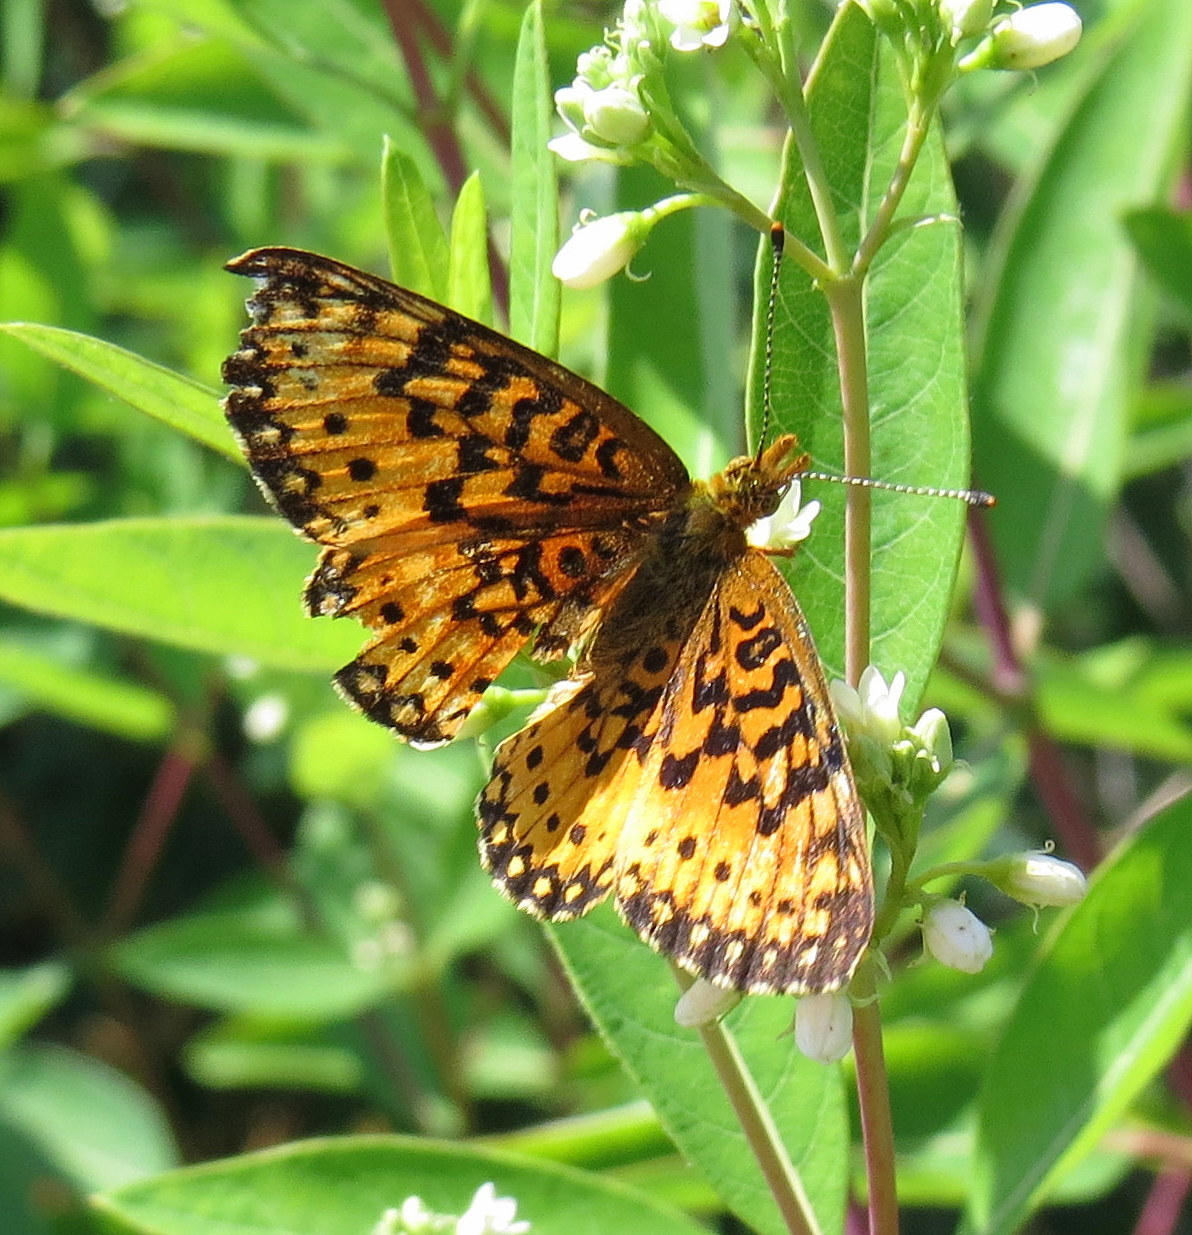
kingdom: Animalia
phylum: Arthropoda
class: Insecta
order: Lepidoptera
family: Nymphalidae
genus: Boloria
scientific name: Boloria
